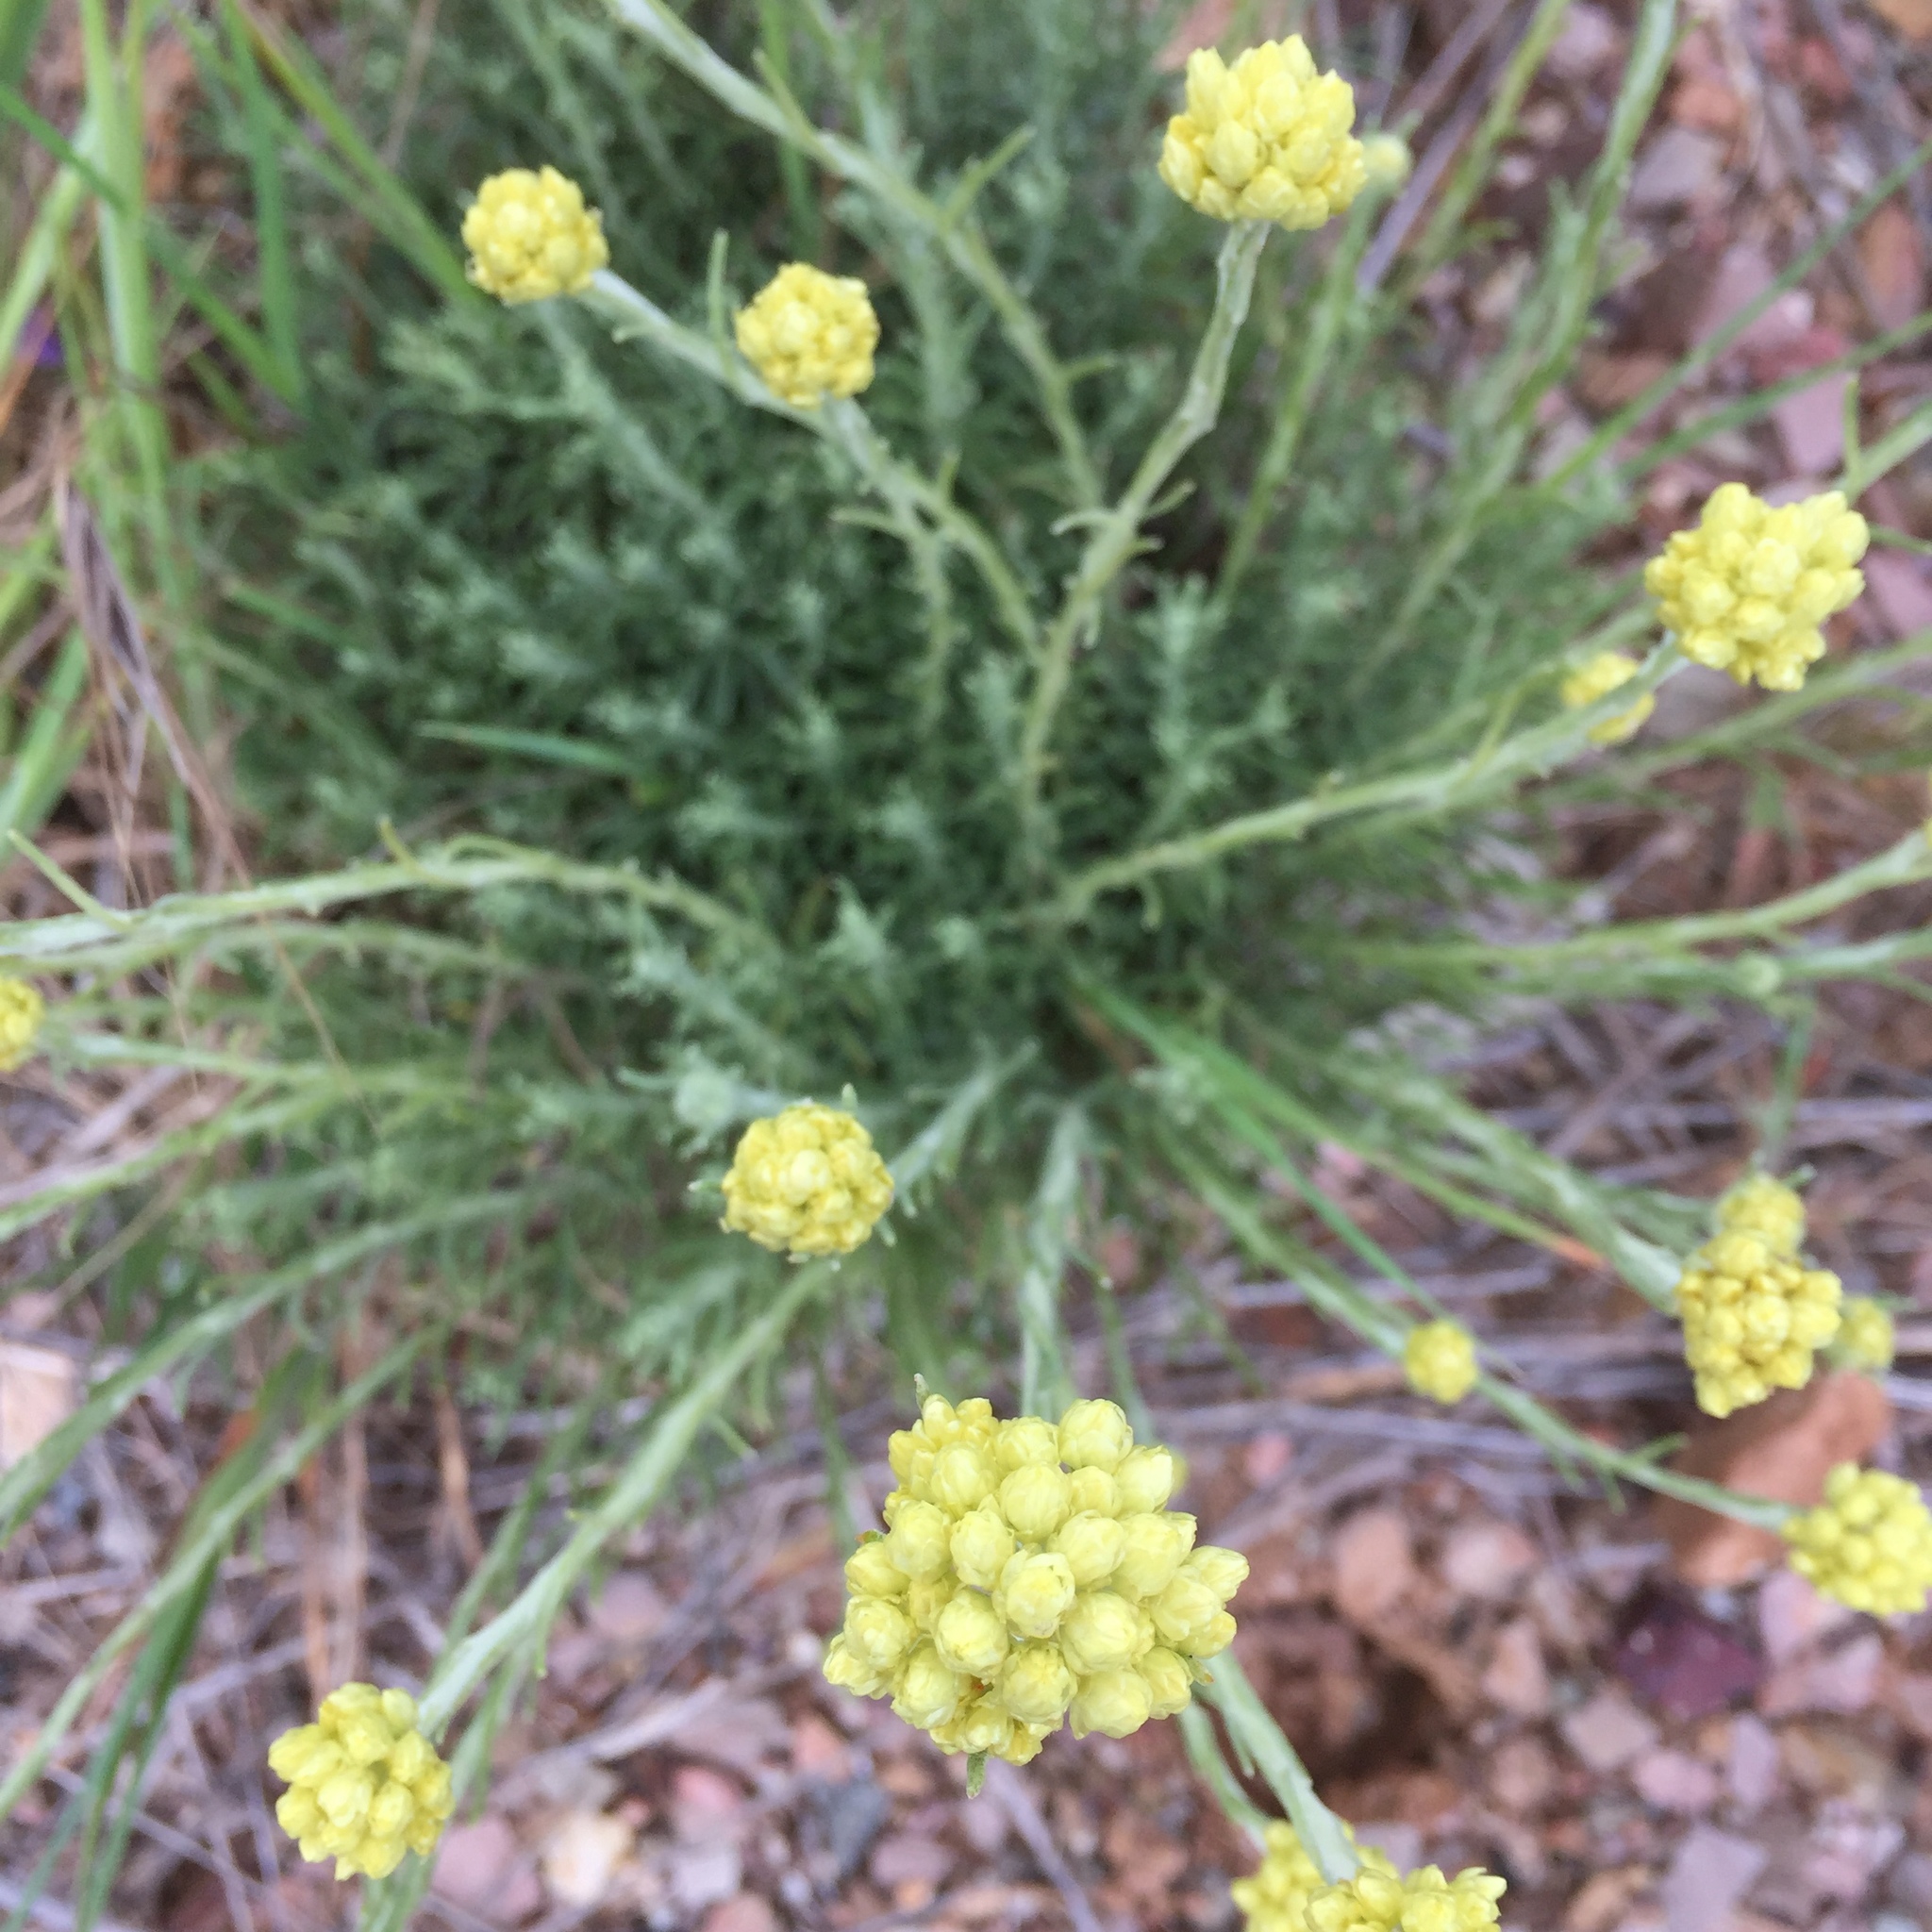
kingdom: Plantae
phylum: Tracheophyta
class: Magnoliopsida
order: Asterales
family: Asteraceae
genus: Helichrysum
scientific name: Helichrysum stoechas
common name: Goldilocks
